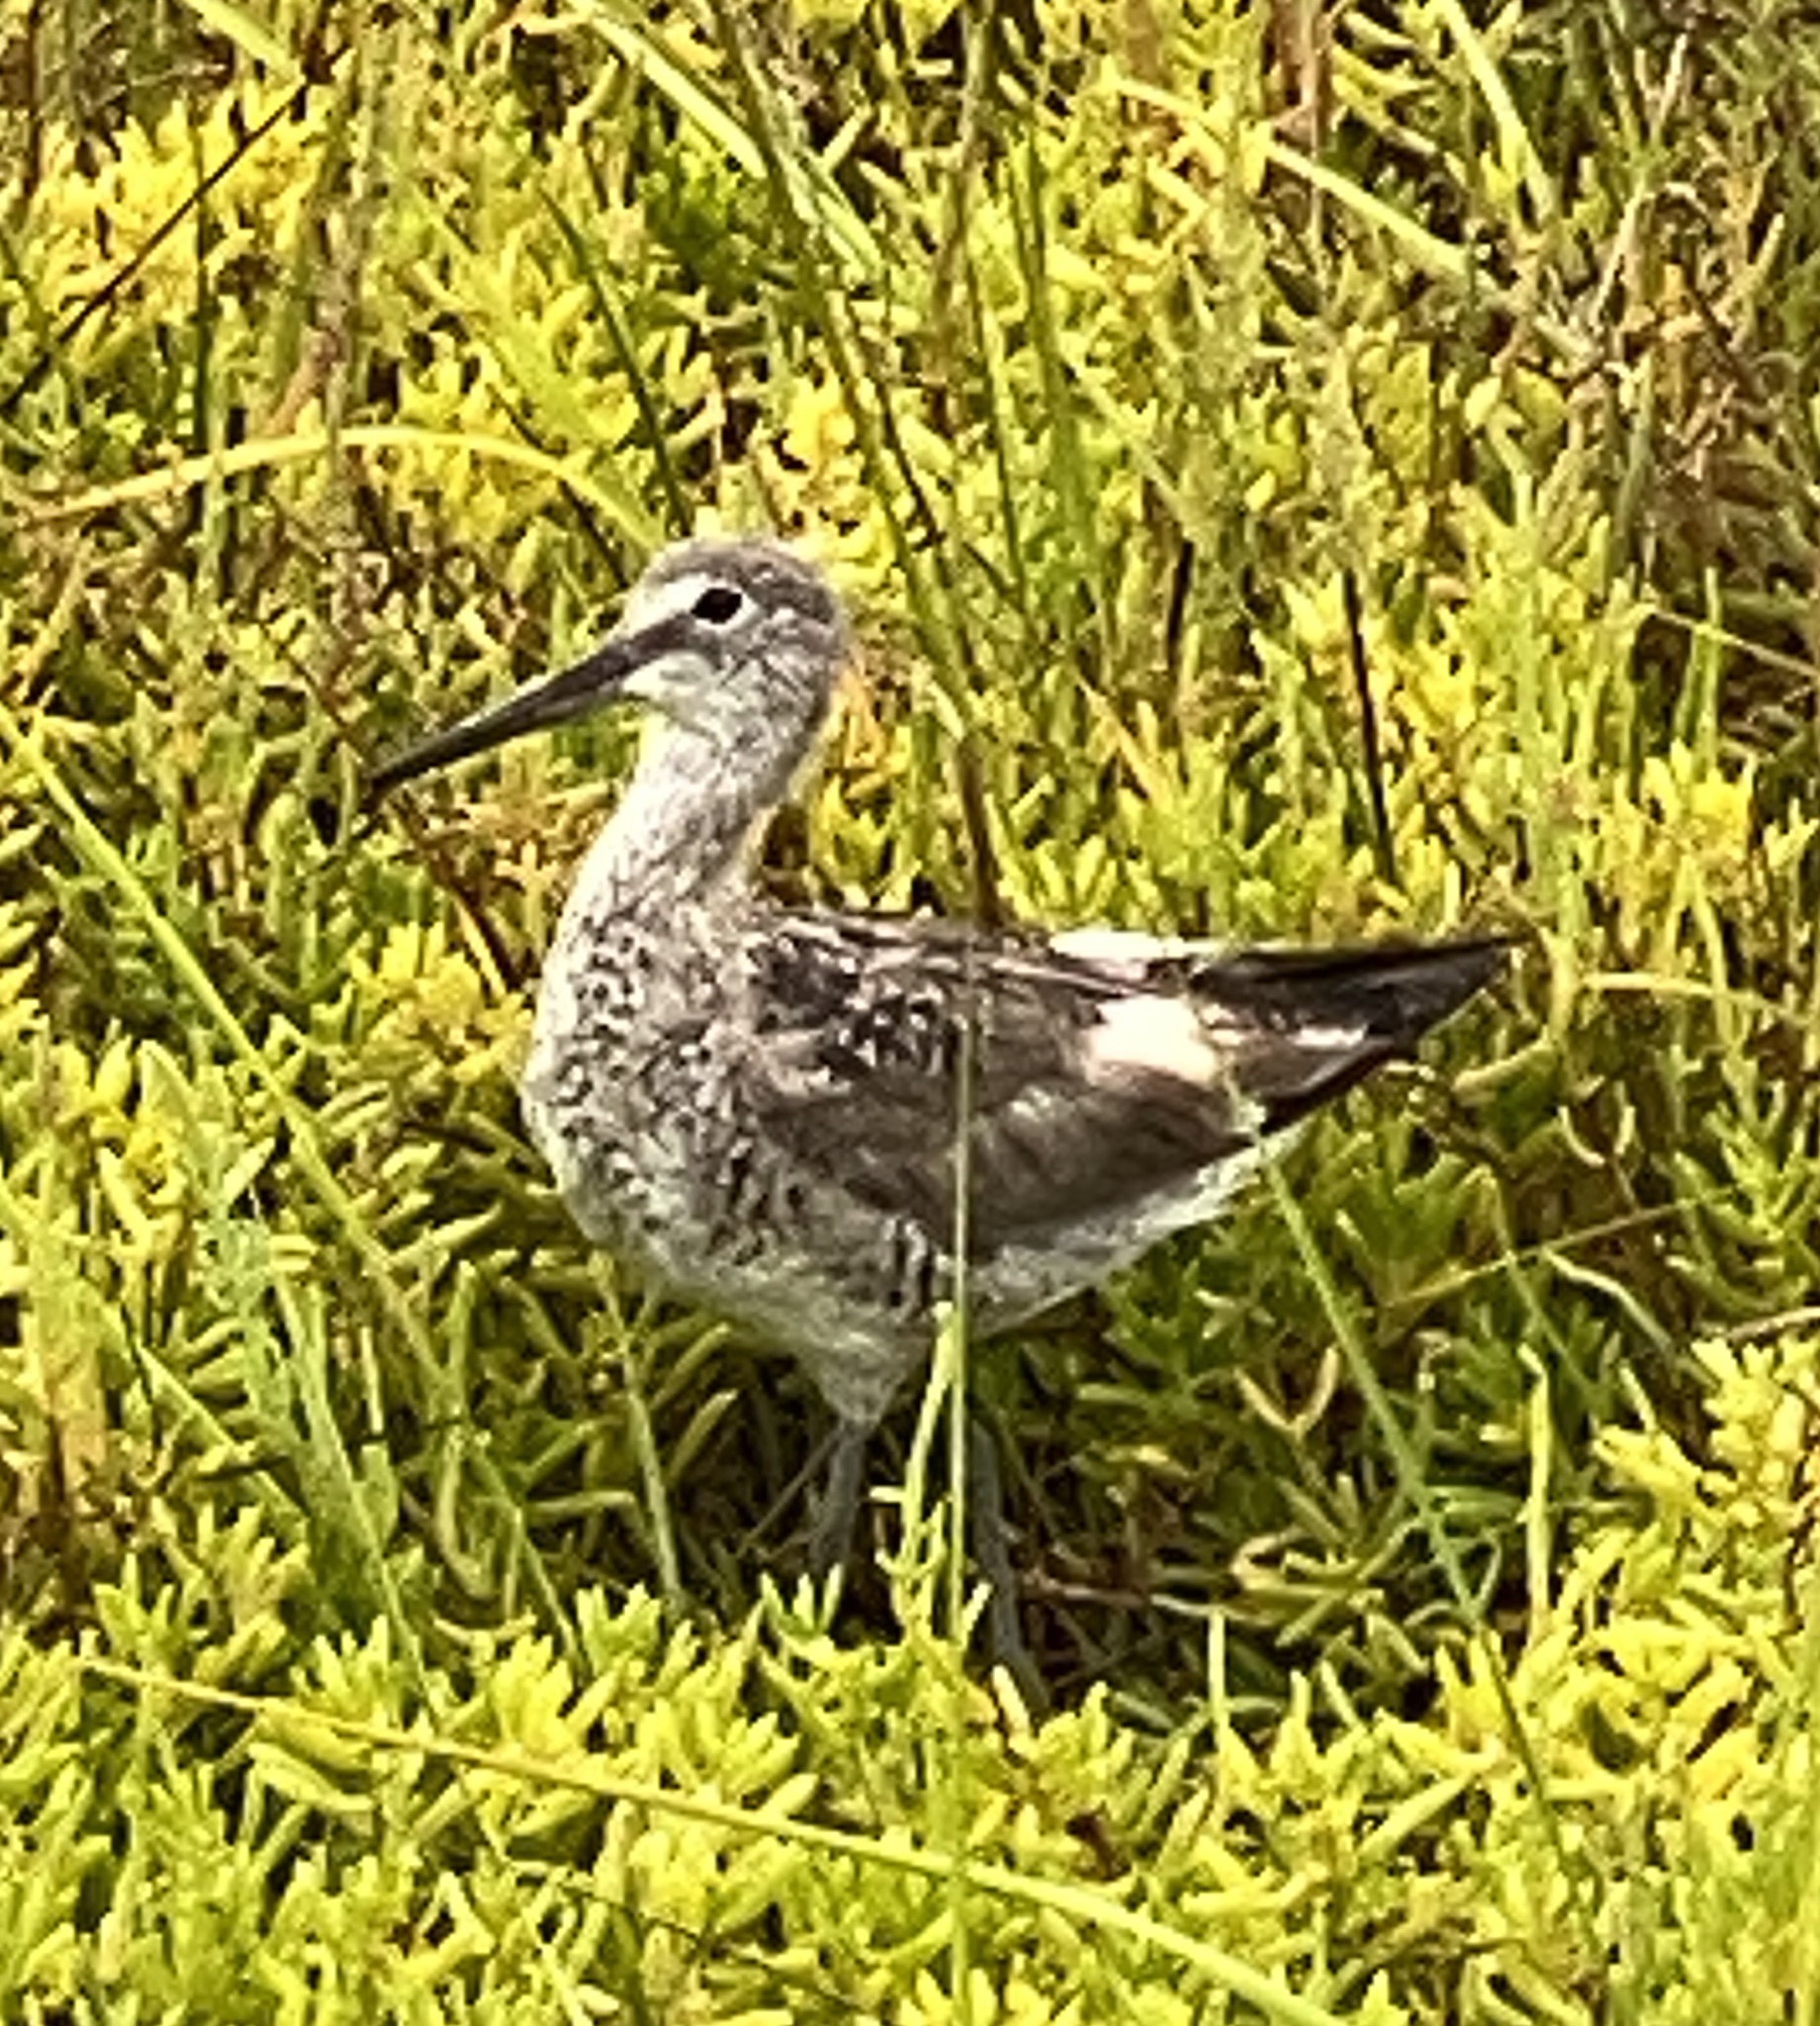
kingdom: Animalia
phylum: Chordata
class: Aves
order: Charadriiformes
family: Scolopacidae
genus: Tringa
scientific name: Tringa semipalmata
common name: Willet
